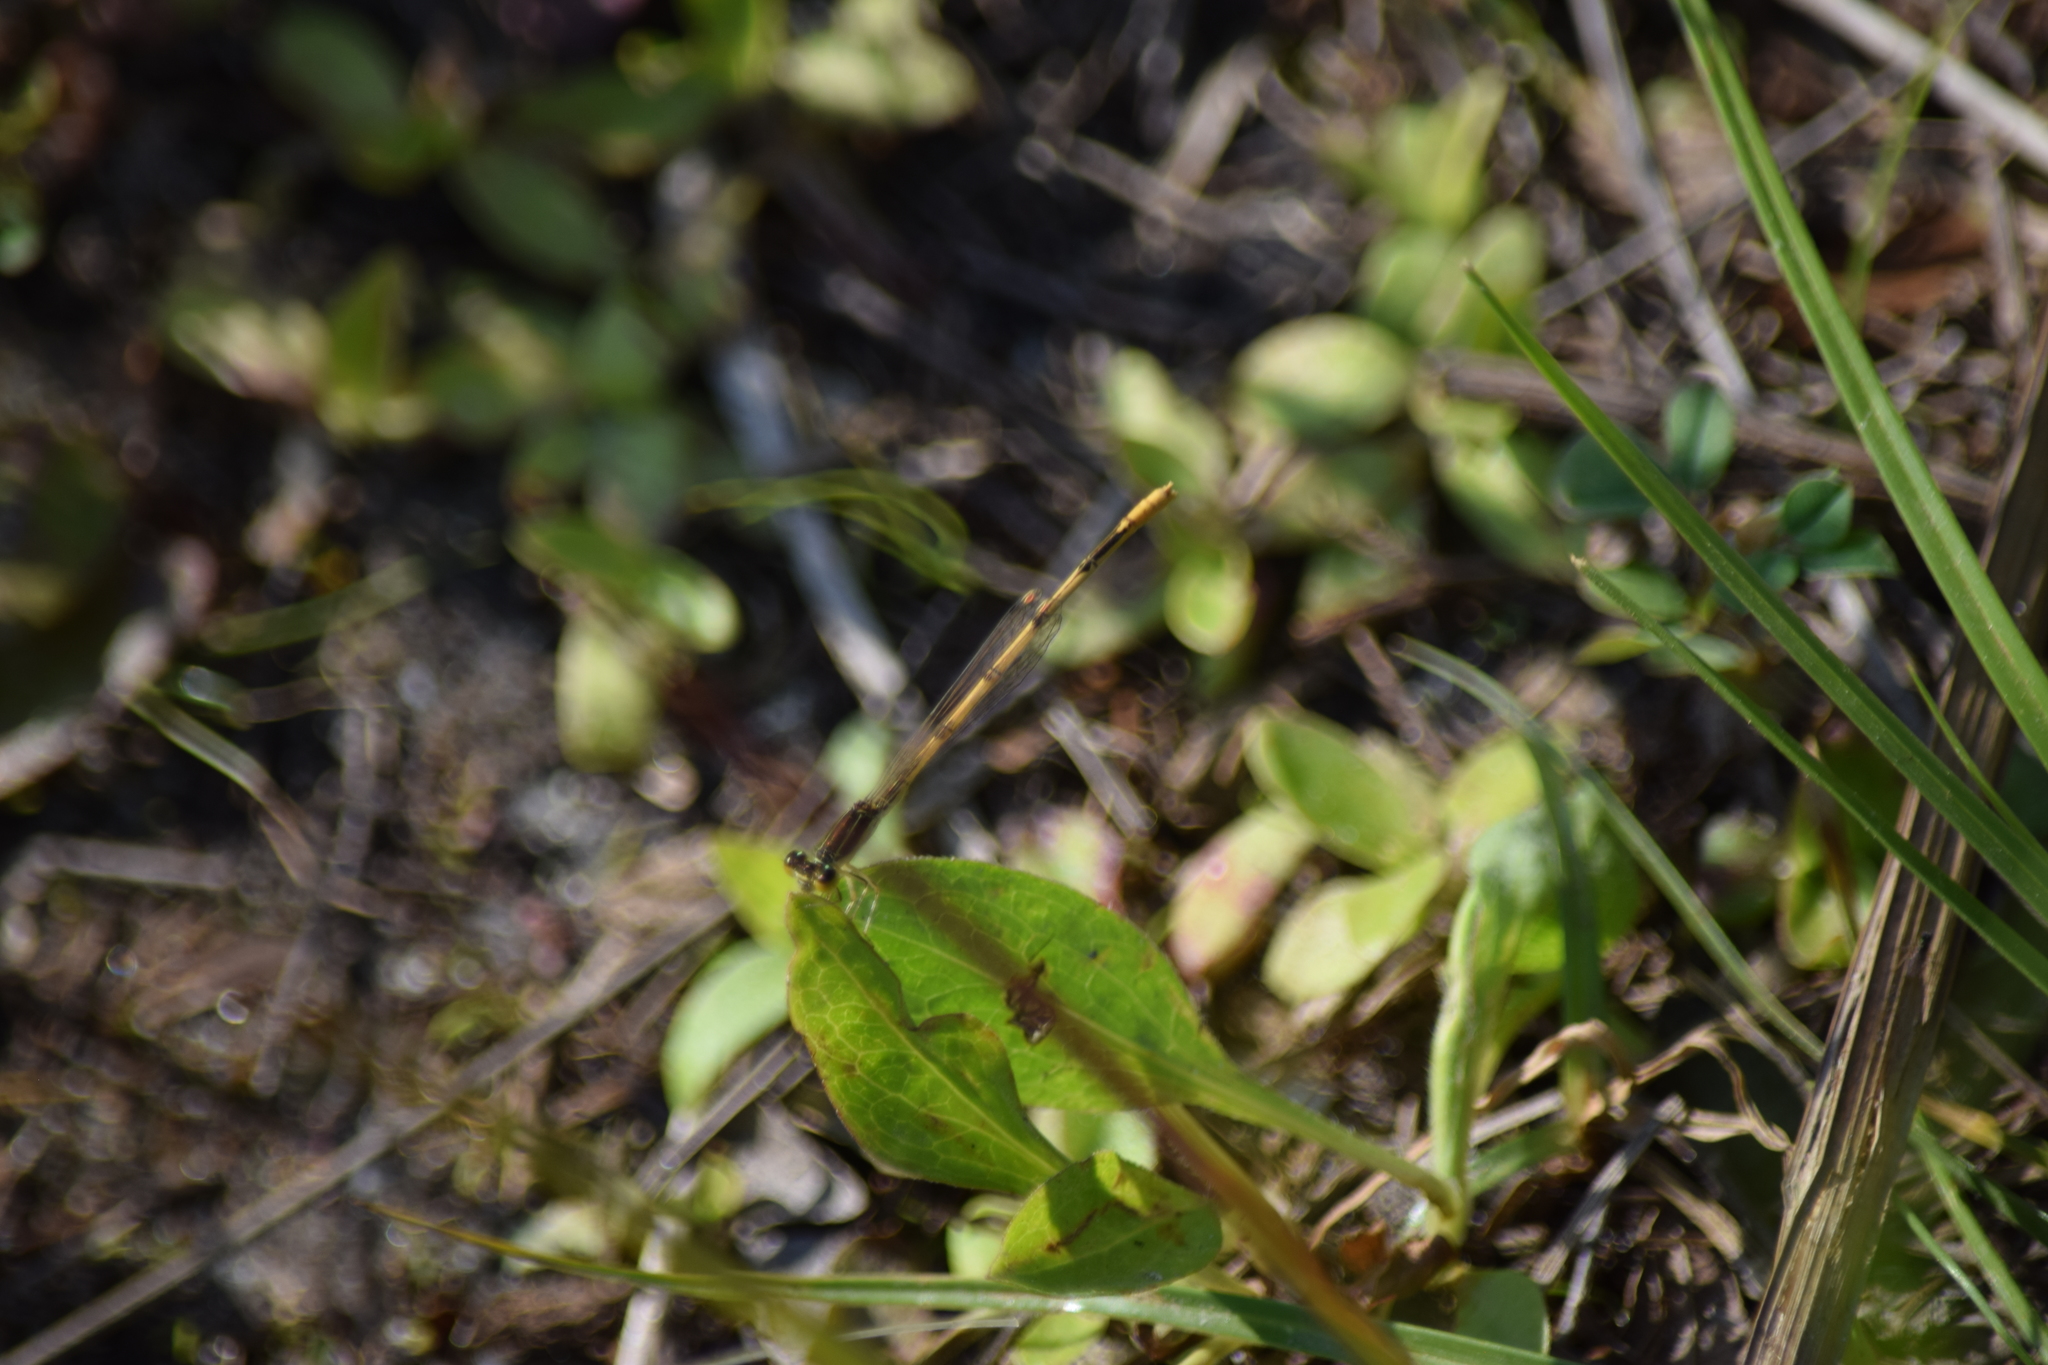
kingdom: Animalia
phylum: Arthropoda
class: Insecta
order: Odonata
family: Coenagrionidae
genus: Ischnura
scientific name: Ischnura hastata
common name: Citrine forktail
